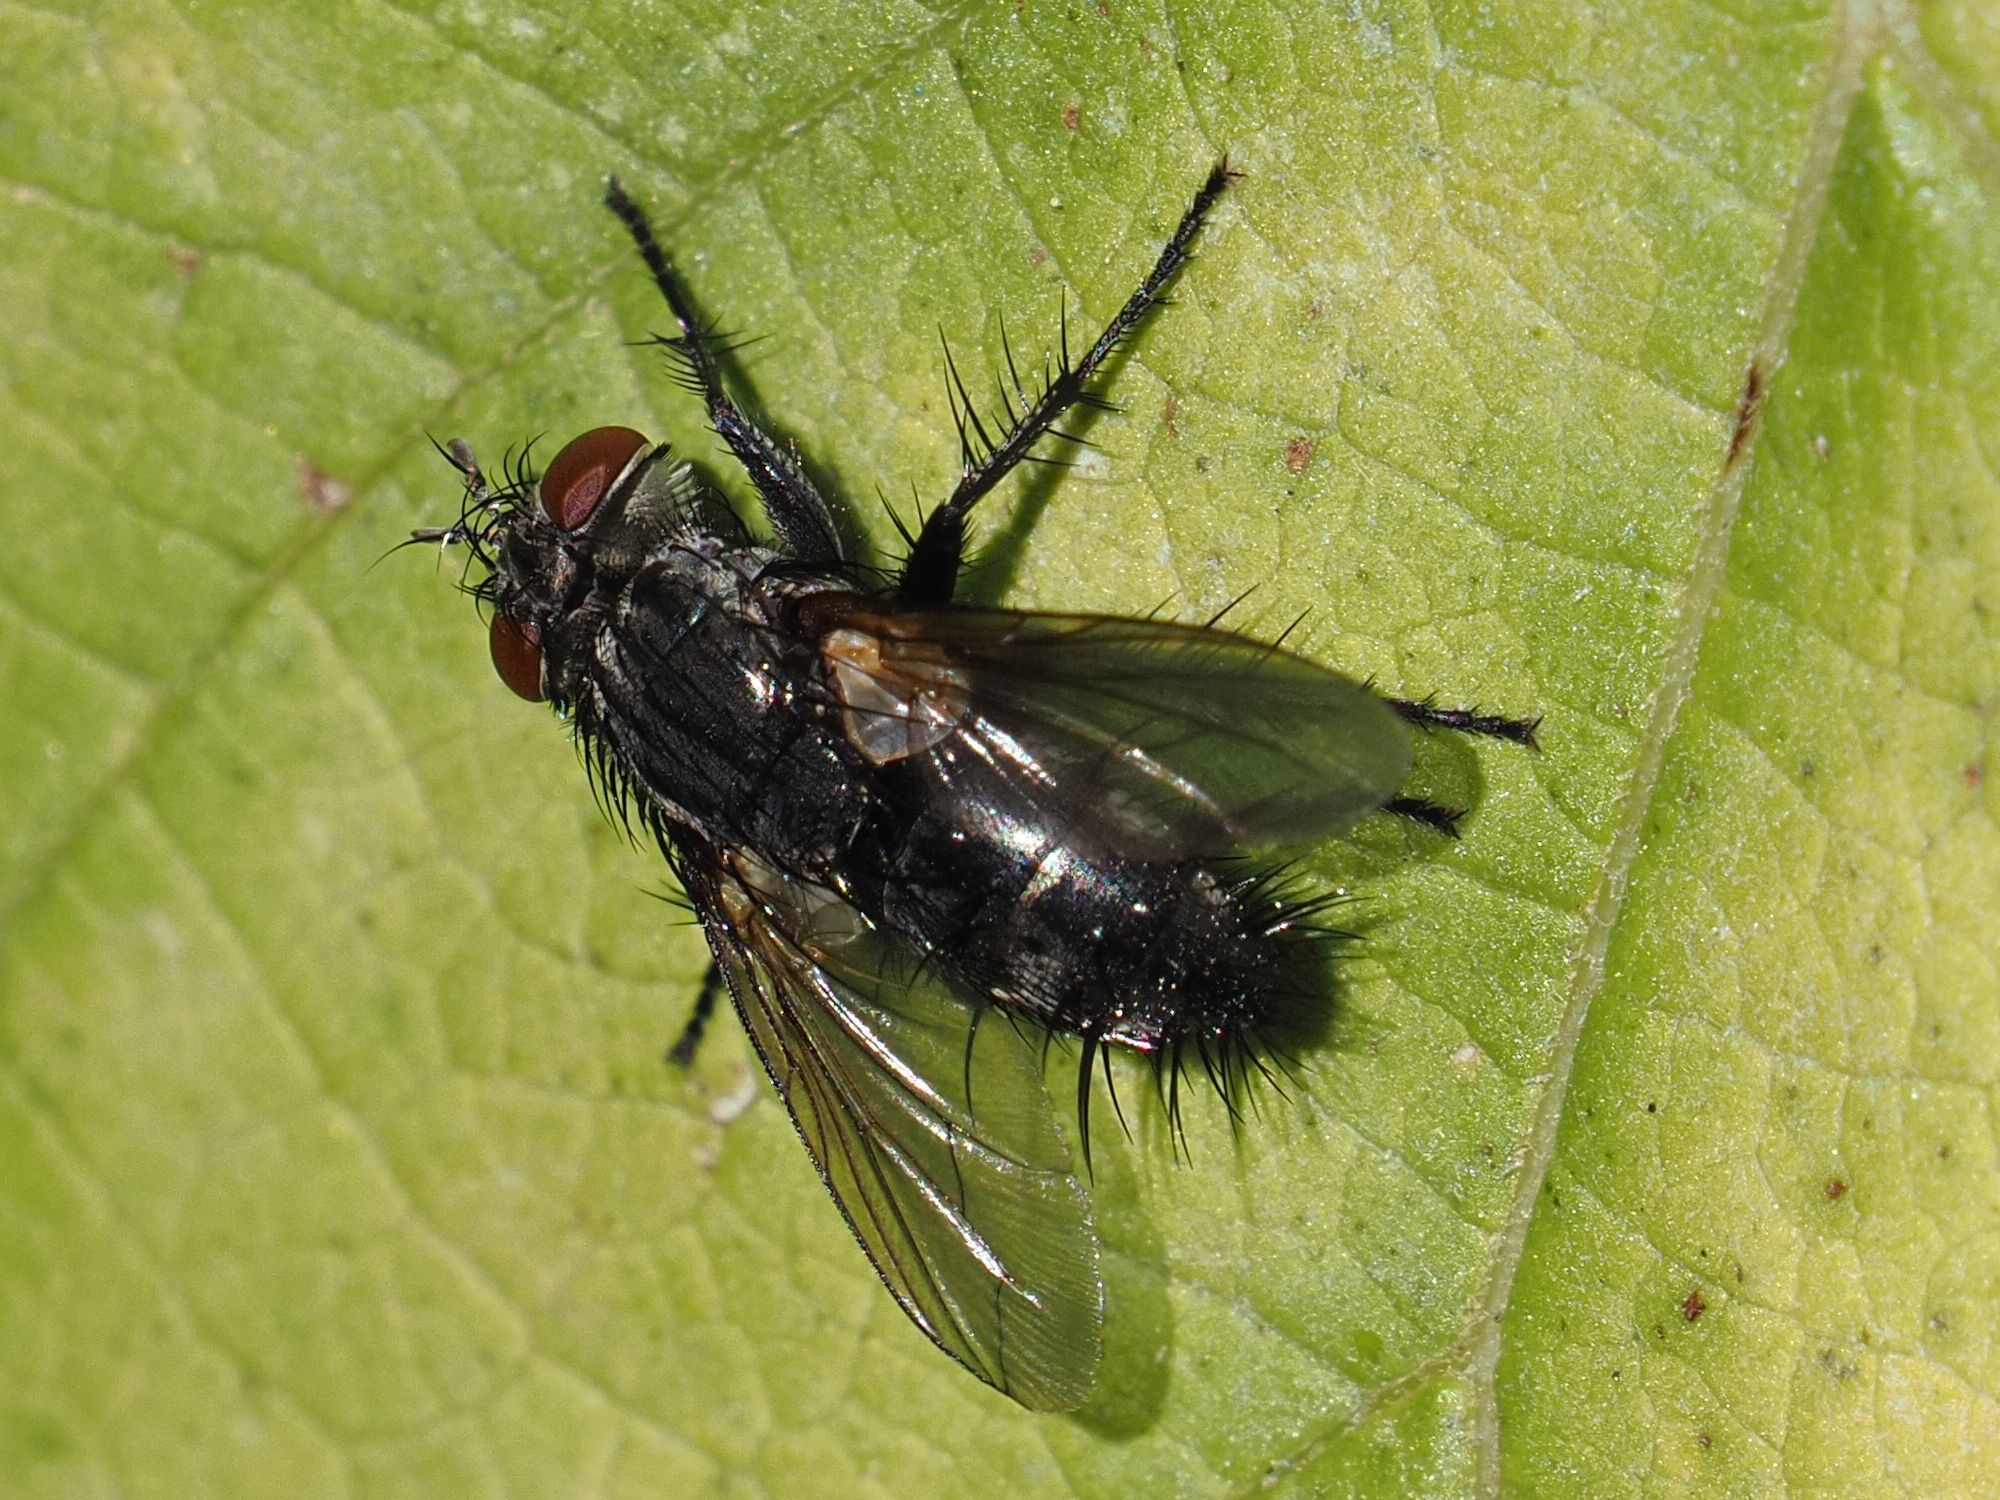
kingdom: Animalia
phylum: Arthropoda
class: Insecta
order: Diptera
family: Tachinidae
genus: Voria
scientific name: Voria ruralis
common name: Parasitic fly
